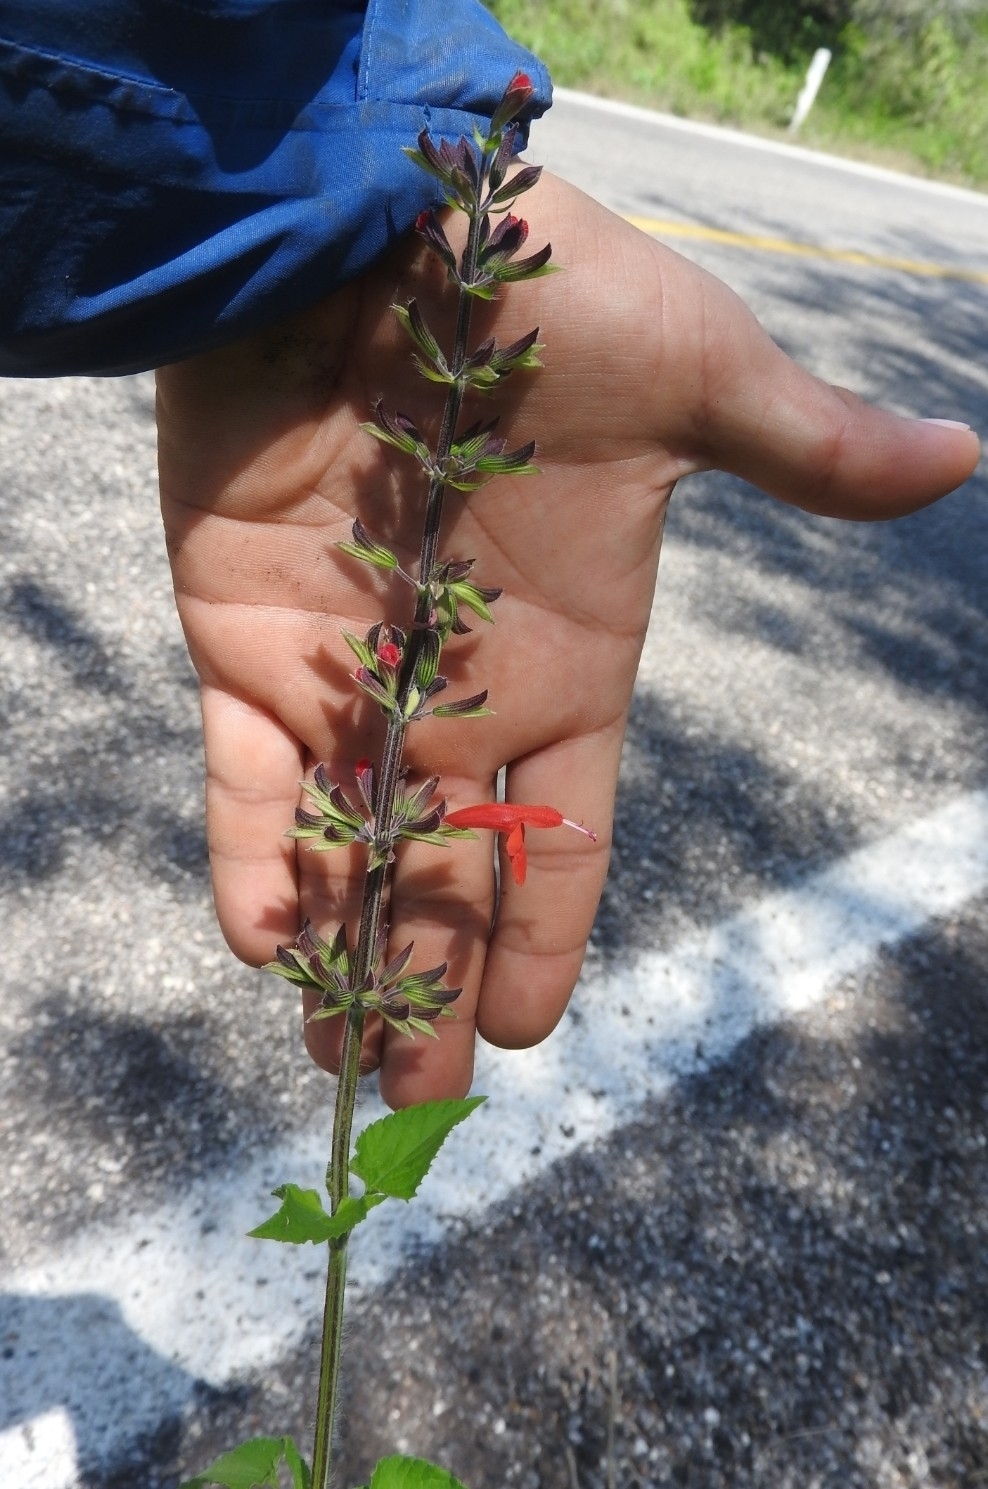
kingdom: Plantae
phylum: Tracheophyta
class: Magnoliopsida
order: Lamiales
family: Lamiaceae
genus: Salvia
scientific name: Salvia coccinea
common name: Blood sage
